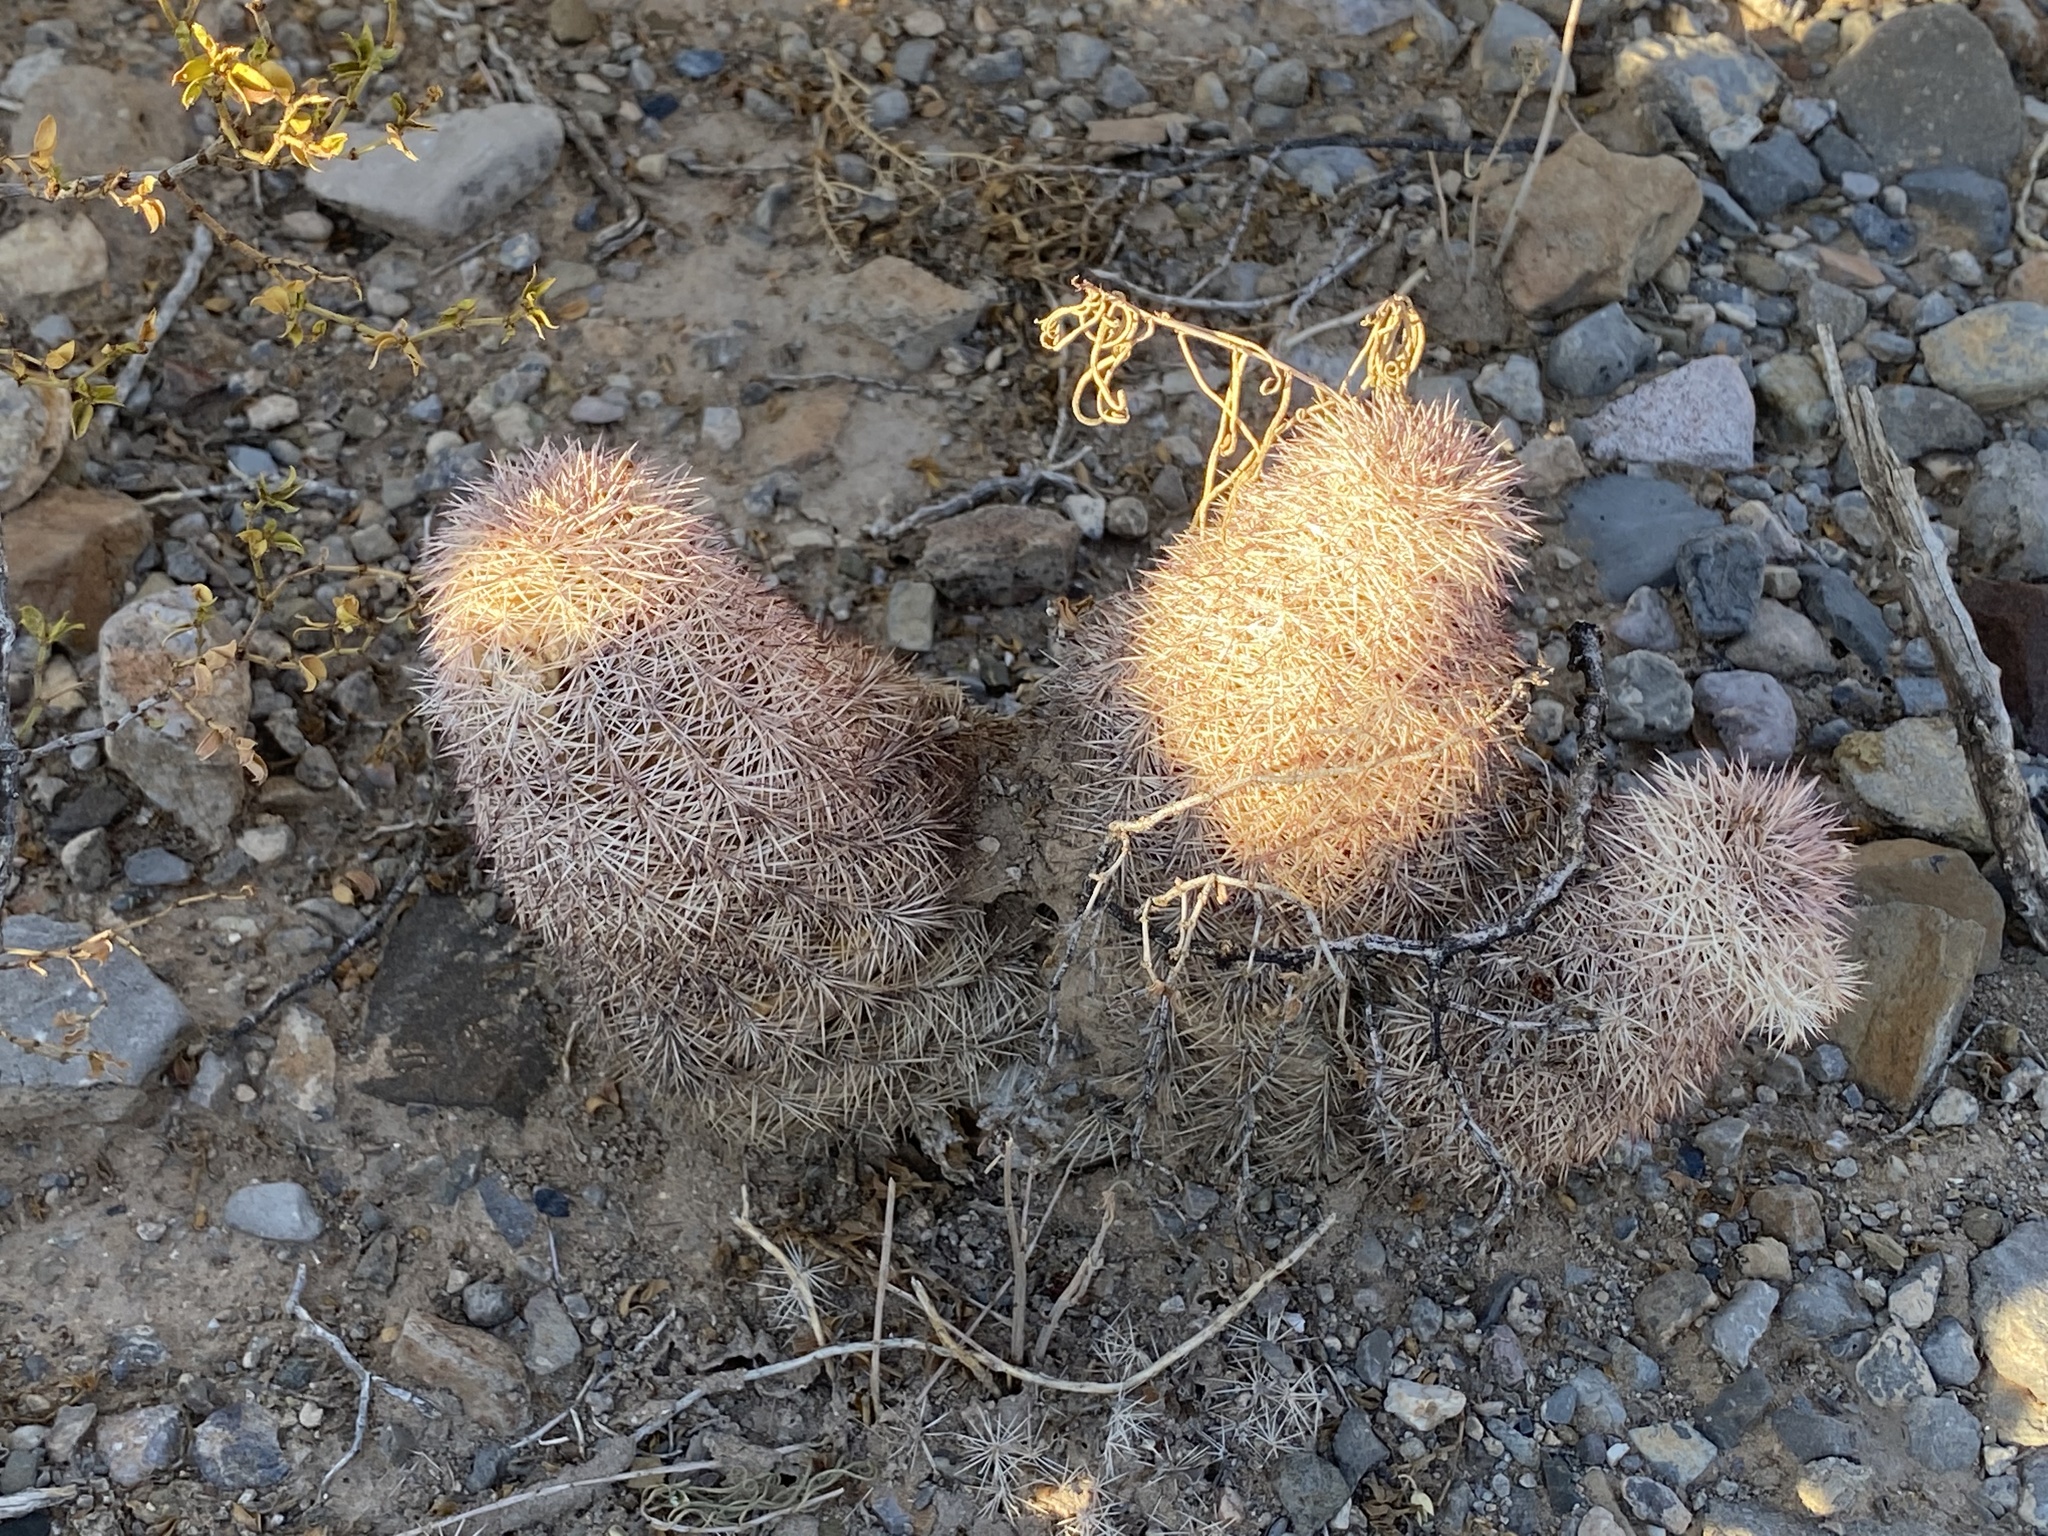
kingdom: Plantae
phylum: Tracheophyta
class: Magnoliopsida
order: Caryophyllales
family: Cactaceae
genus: Echinocereus
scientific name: Echinocereus dasyacanthus
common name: Spiny hedgehog cactus
